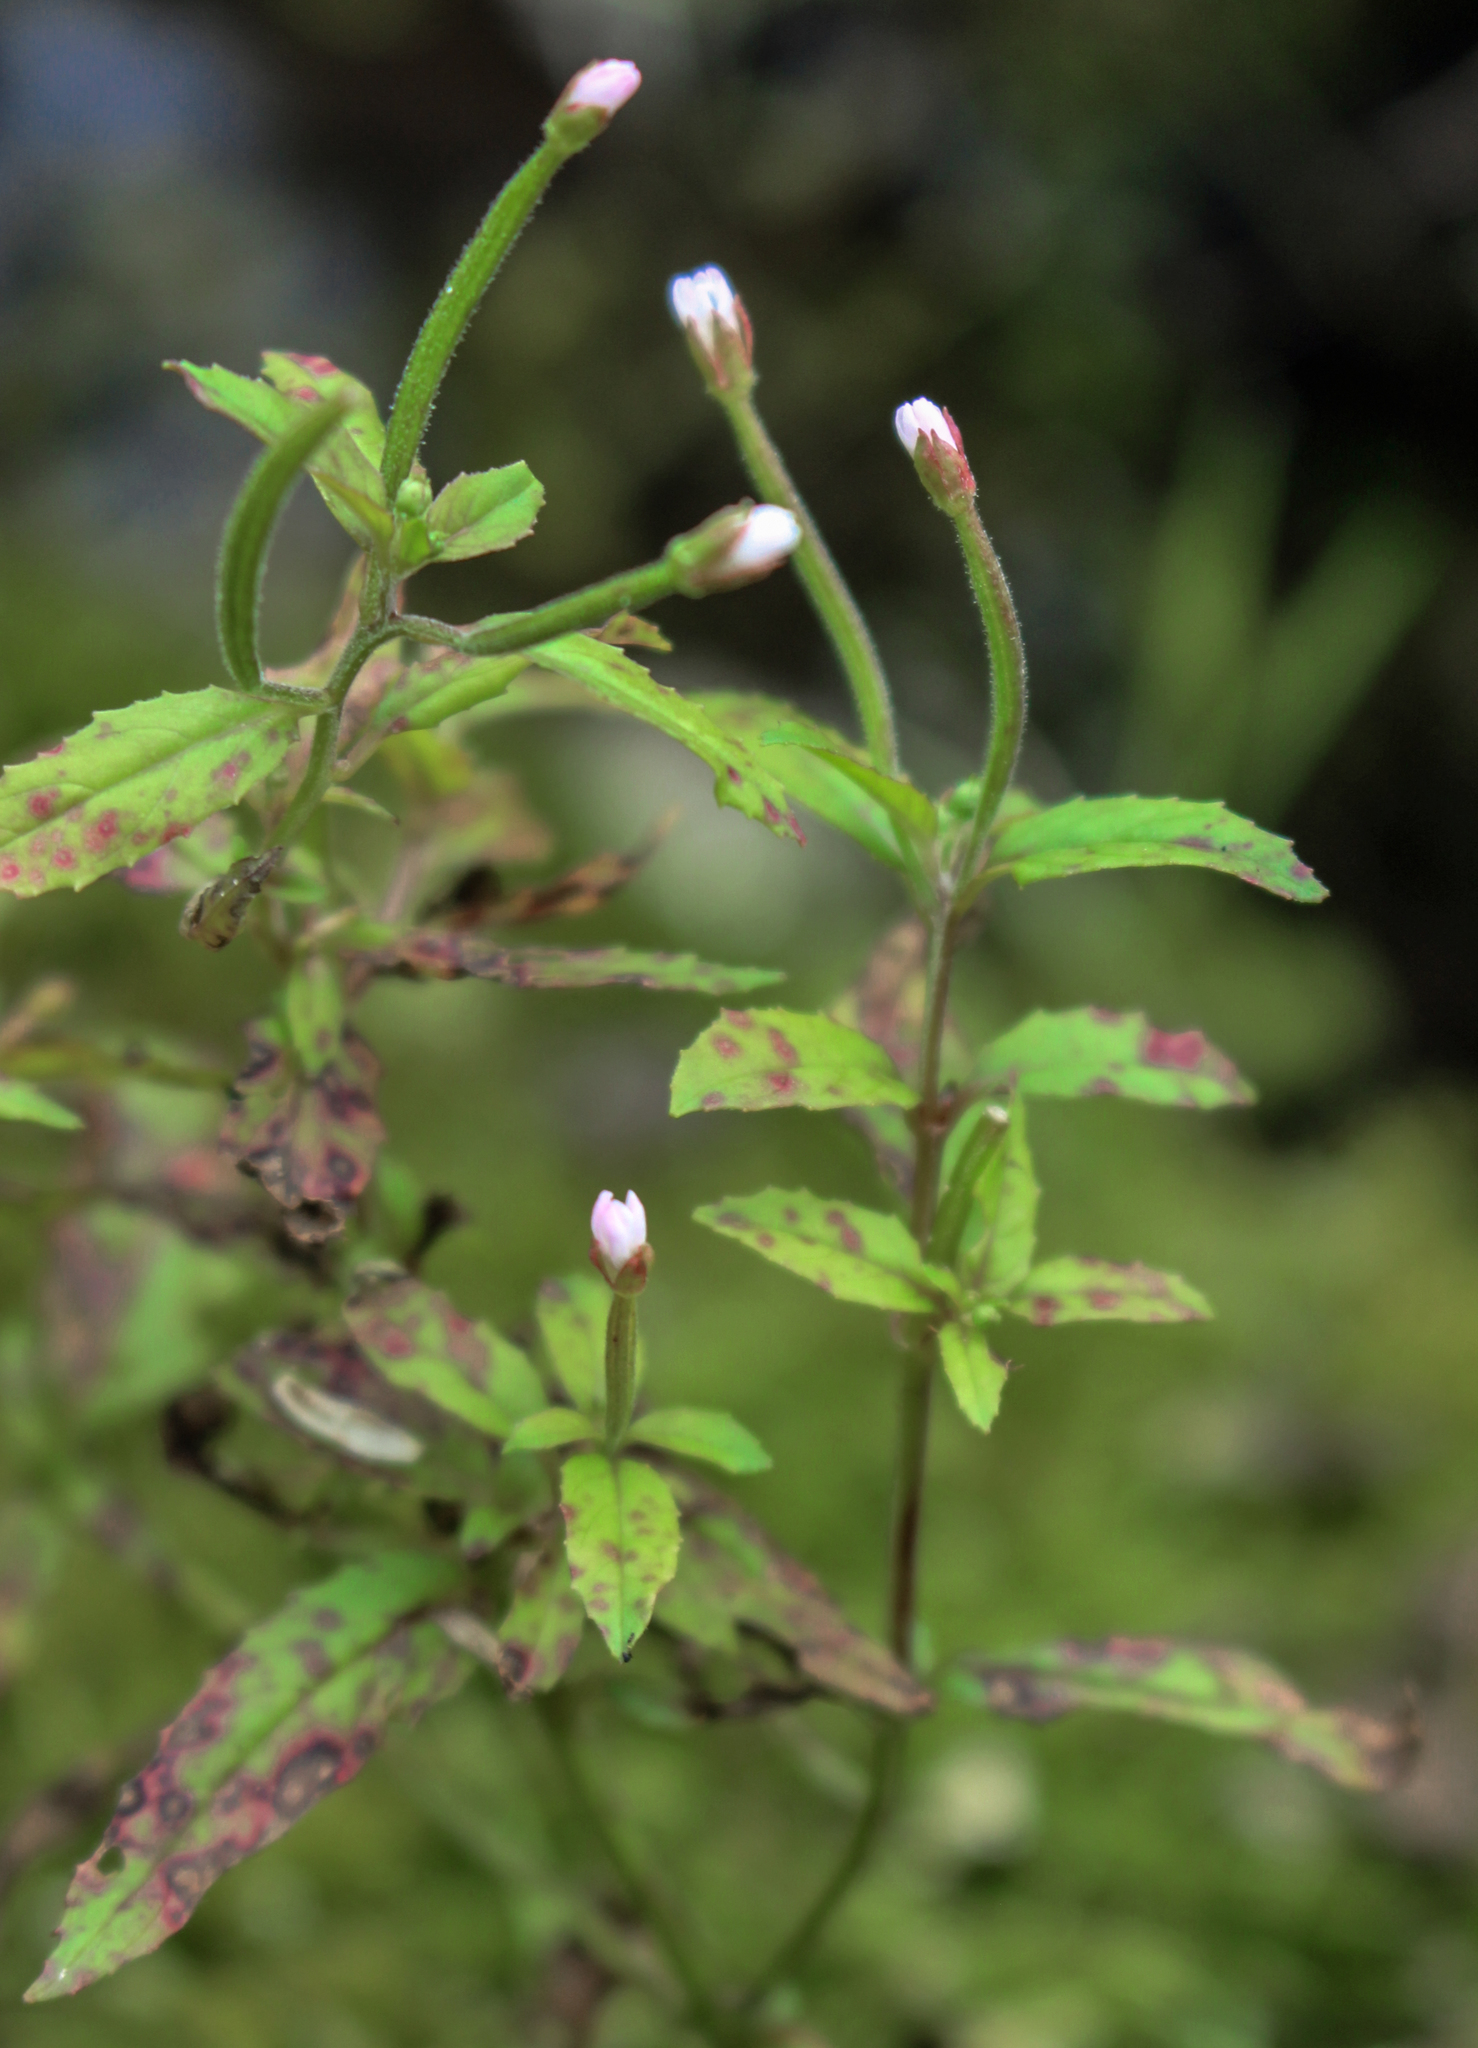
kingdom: Plantae
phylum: Tracheophyta
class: Magnoliopsida
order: Myrtales
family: Onagraceae
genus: Epilobium
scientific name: Epilobium coloratum
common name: Bronze willowherb
